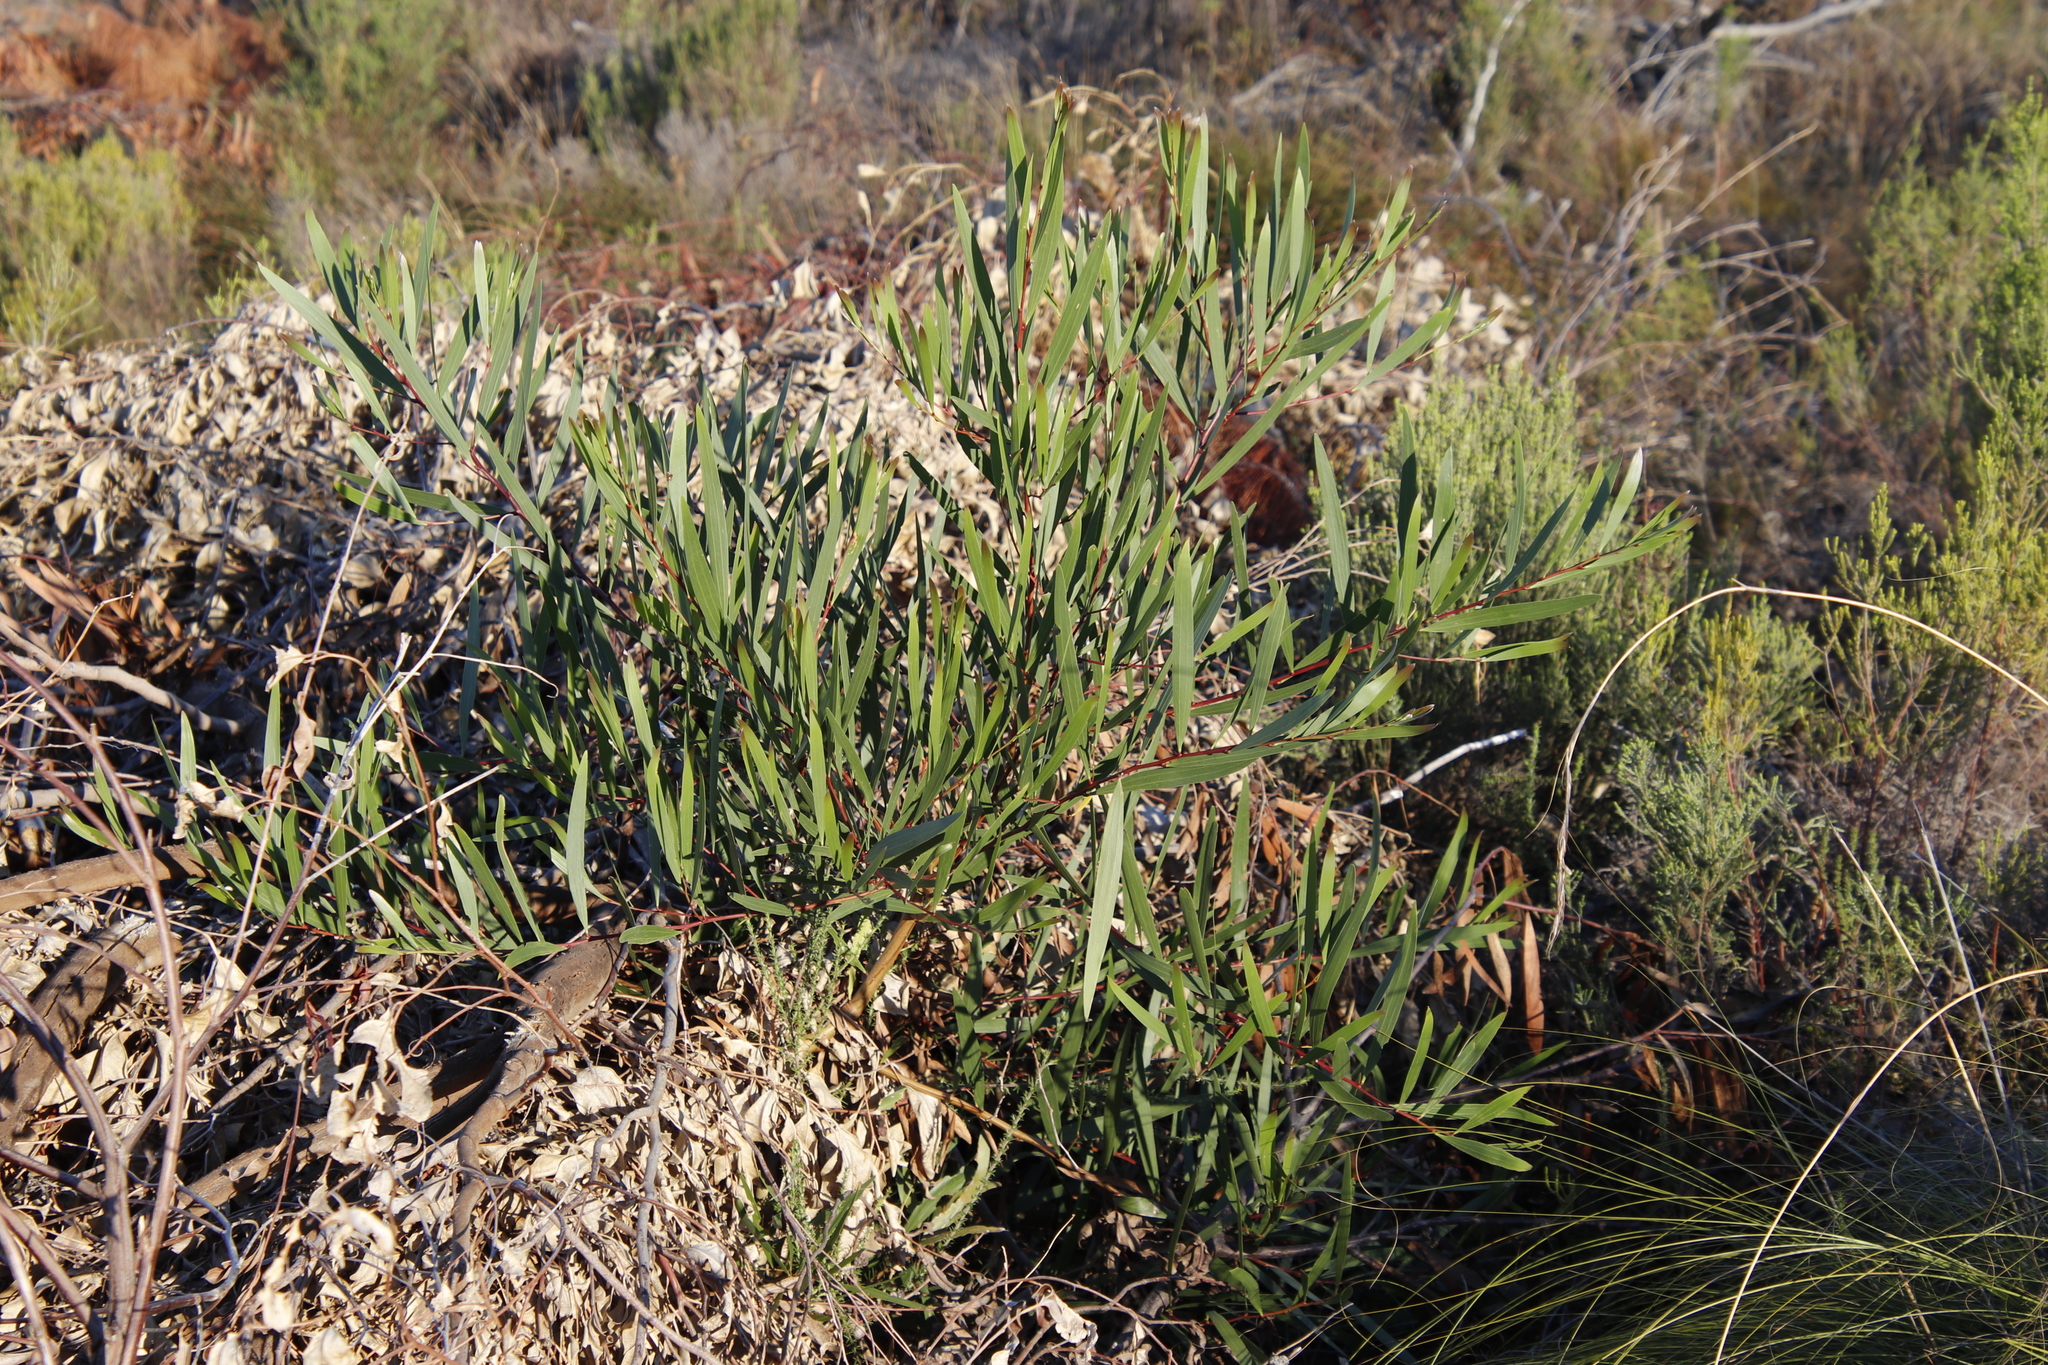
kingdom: Plantae
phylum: Tracheophyta
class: Magnoliopsida
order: Fabales
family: Fabaceae
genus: Acacia
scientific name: Acacia longifolia
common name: Sydney golden wattle
